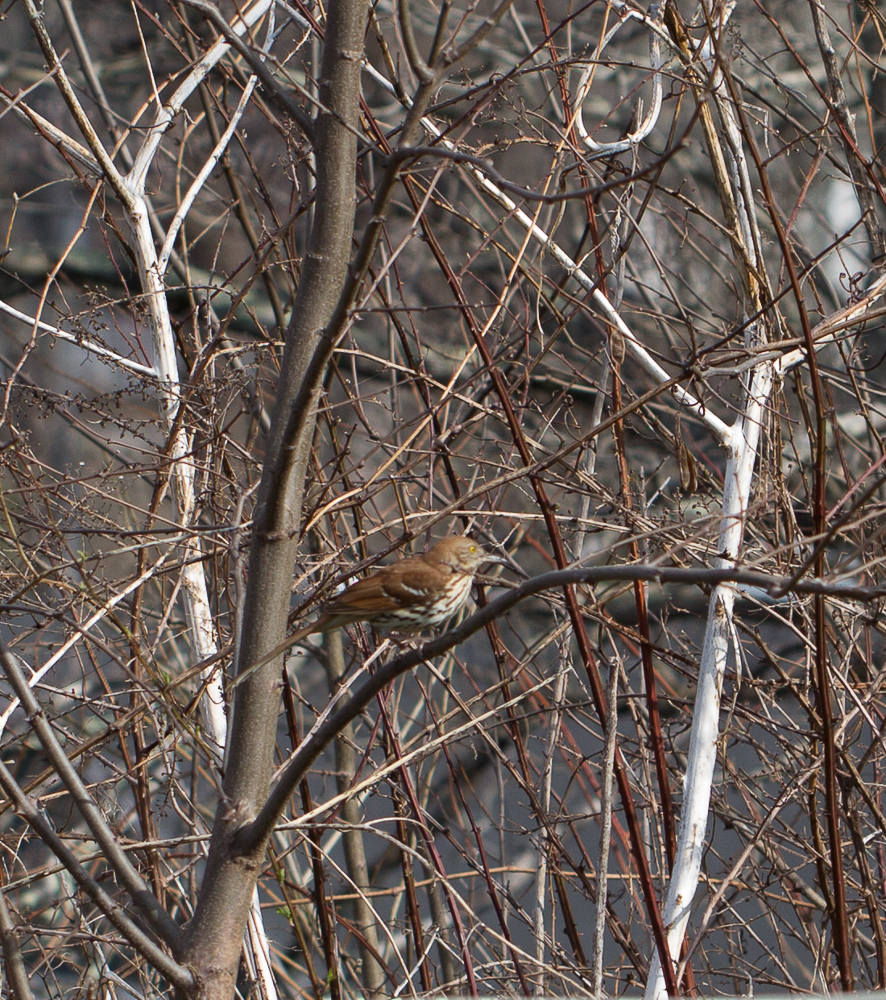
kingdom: Animalia
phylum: Chordata
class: Aves
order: Passeriformes
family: Mimidae
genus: Toxostoma
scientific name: Toxostoma rufum
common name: Brown thrasher
